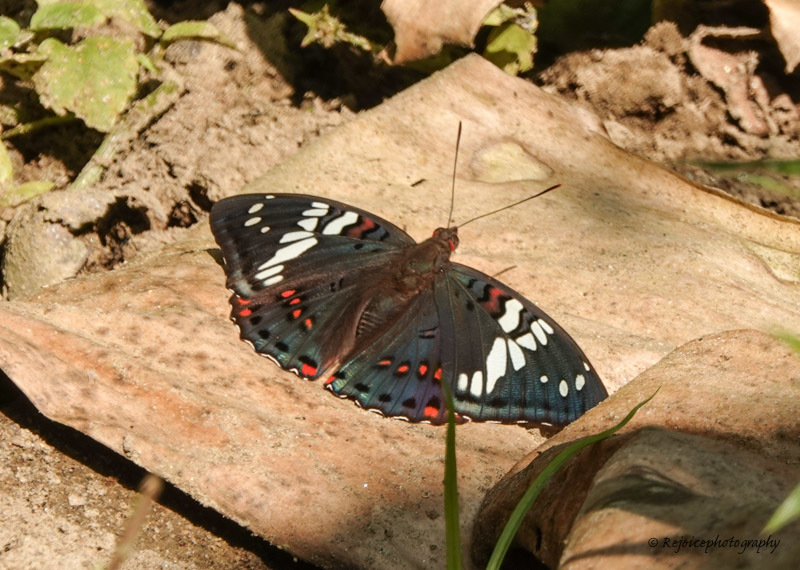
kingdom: Animalia
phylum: Arthropoda
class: Insecta
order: Lepidoptera
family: Nymphalidae
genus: Euthalia
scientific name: Euthalia lubentina
